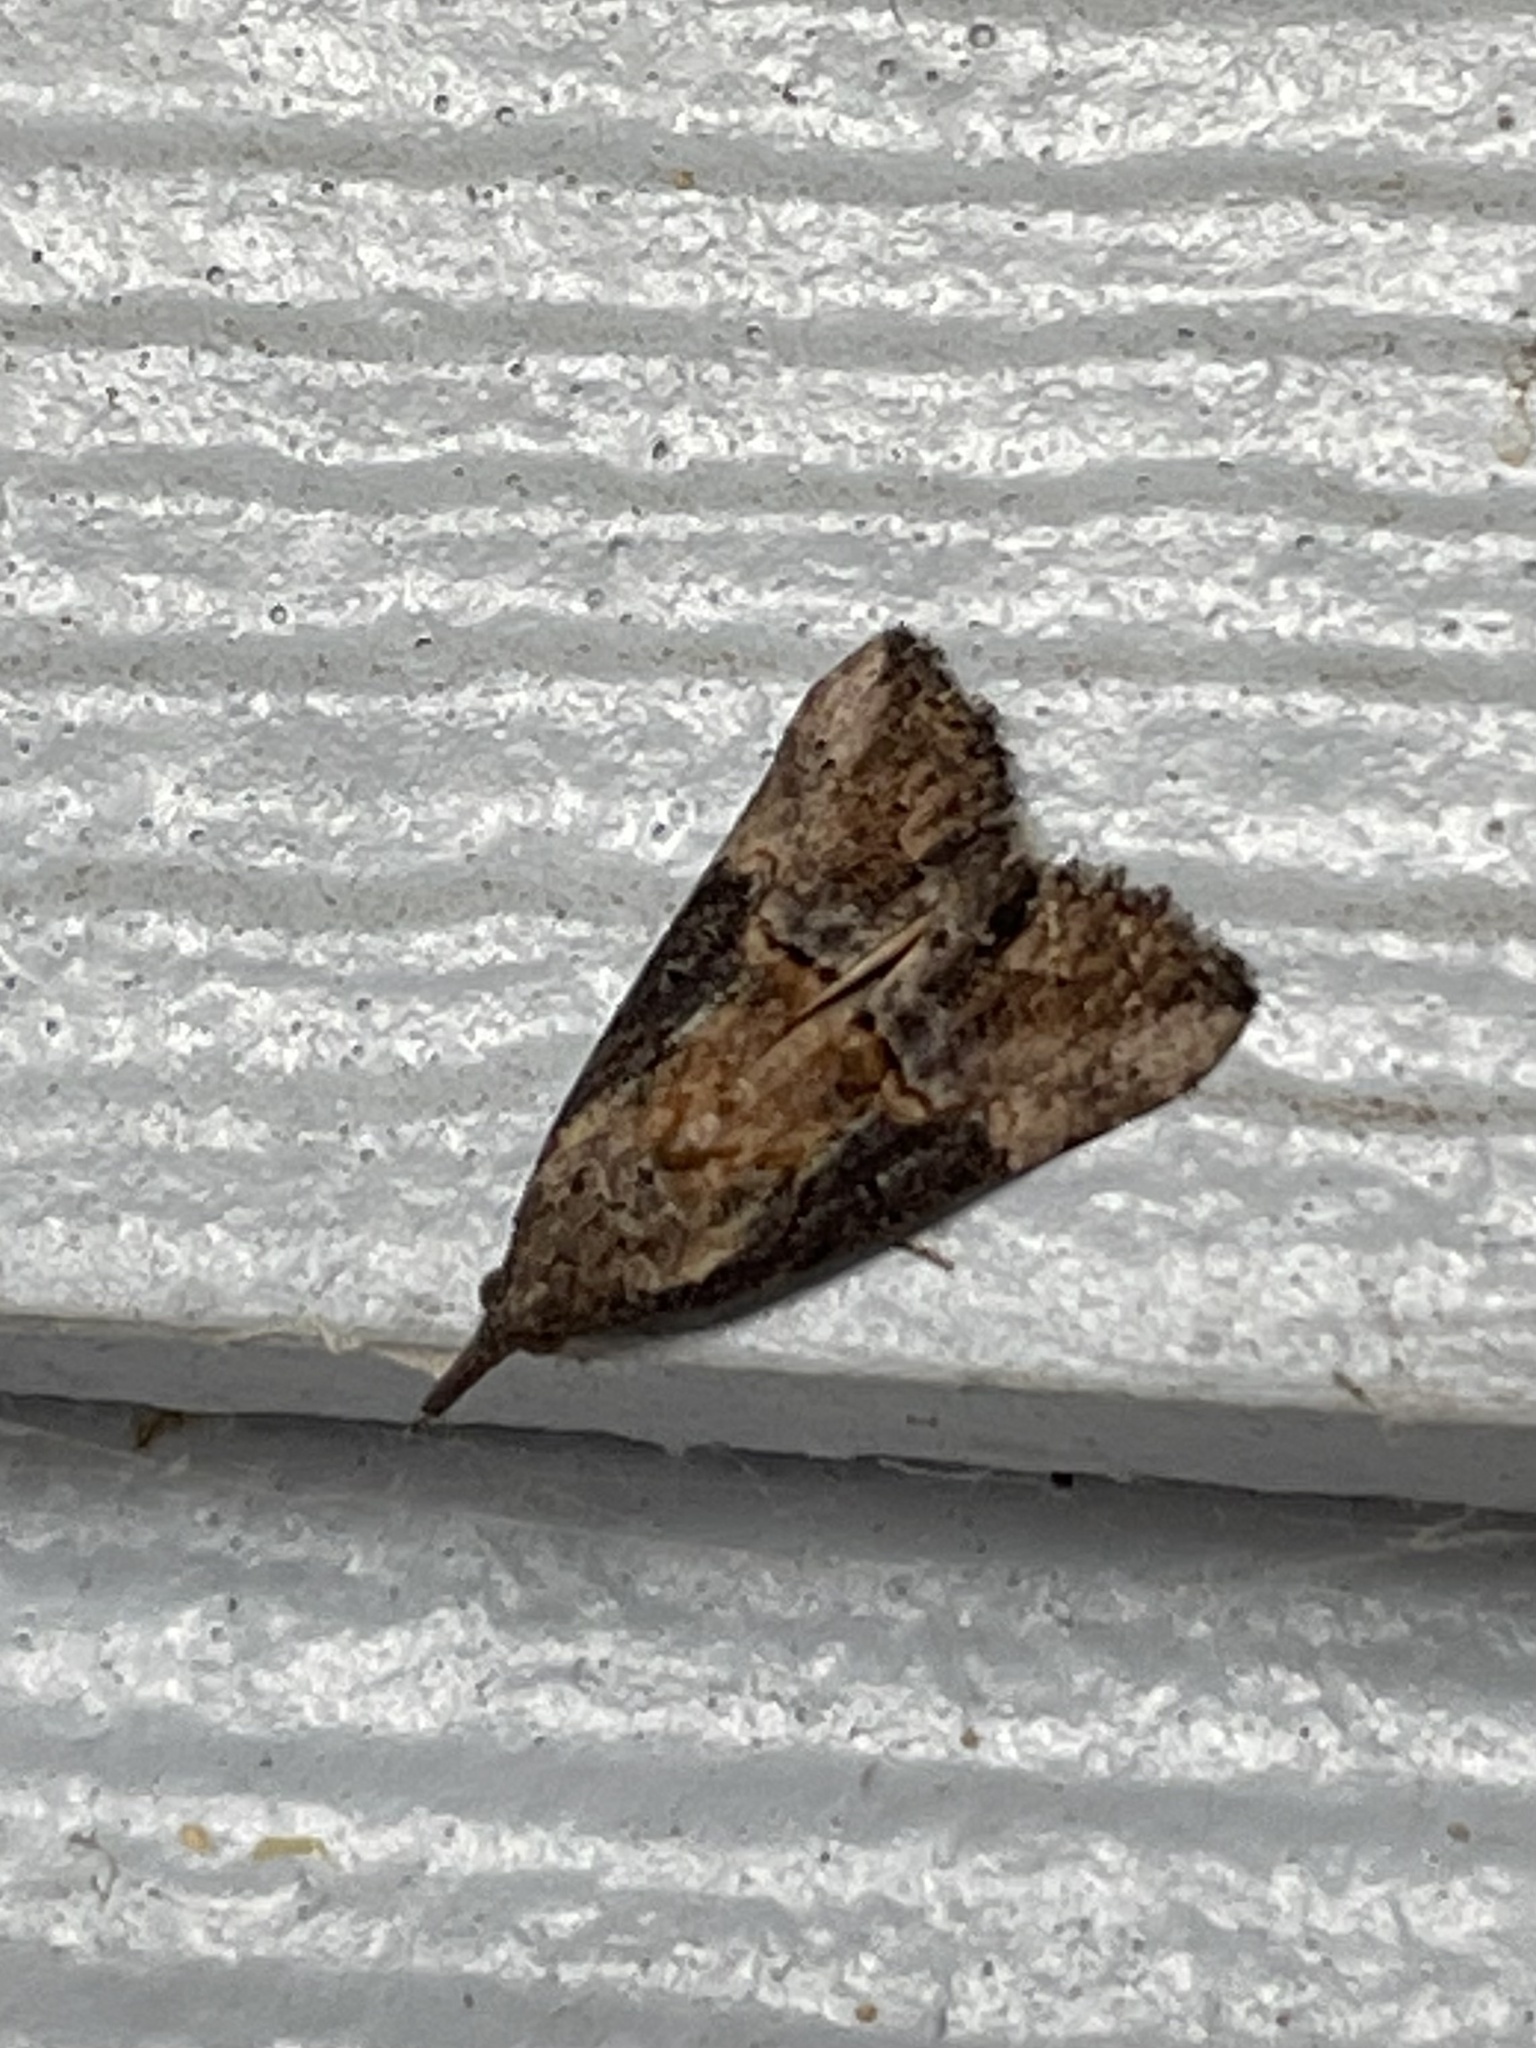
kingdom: Animalia
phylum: Arthropoda
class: Insecta
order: Lepidoptera
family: Erebidae
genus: Hypena
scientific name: Hypena scabra
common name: Green cloverworm
